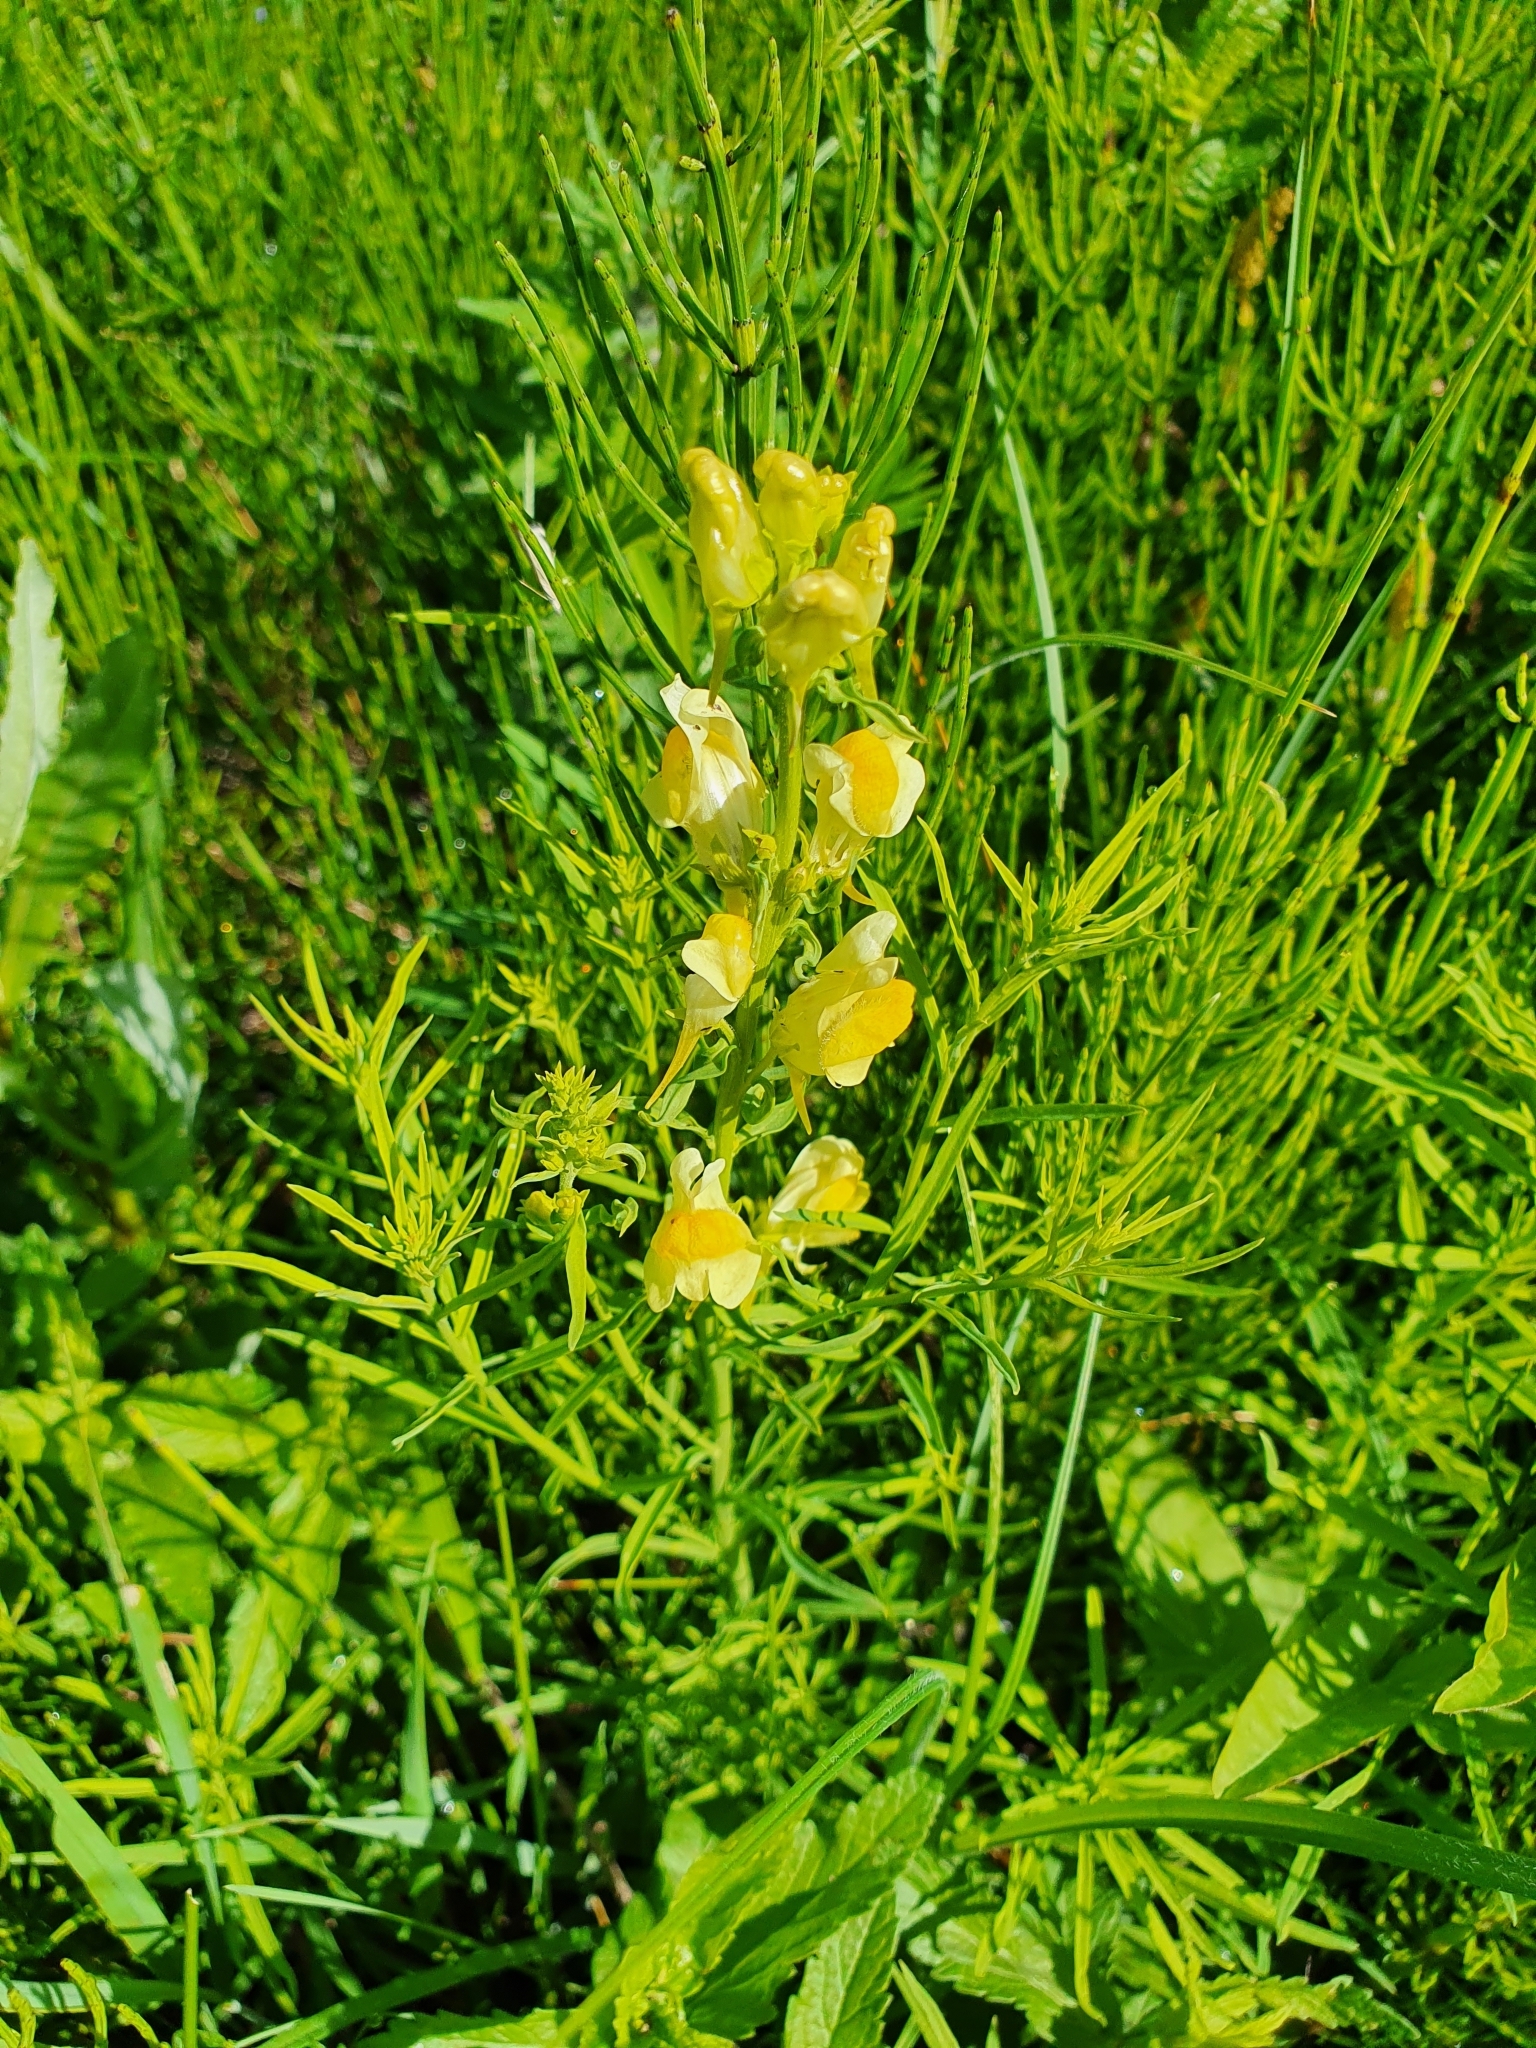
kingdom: Plantae
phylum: Tracheophyta
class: Magnoliopsida
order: Lamiales
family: Plantaginaceae
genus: Linaria
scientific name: Linaria vulgaris
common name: Butter and eggs
